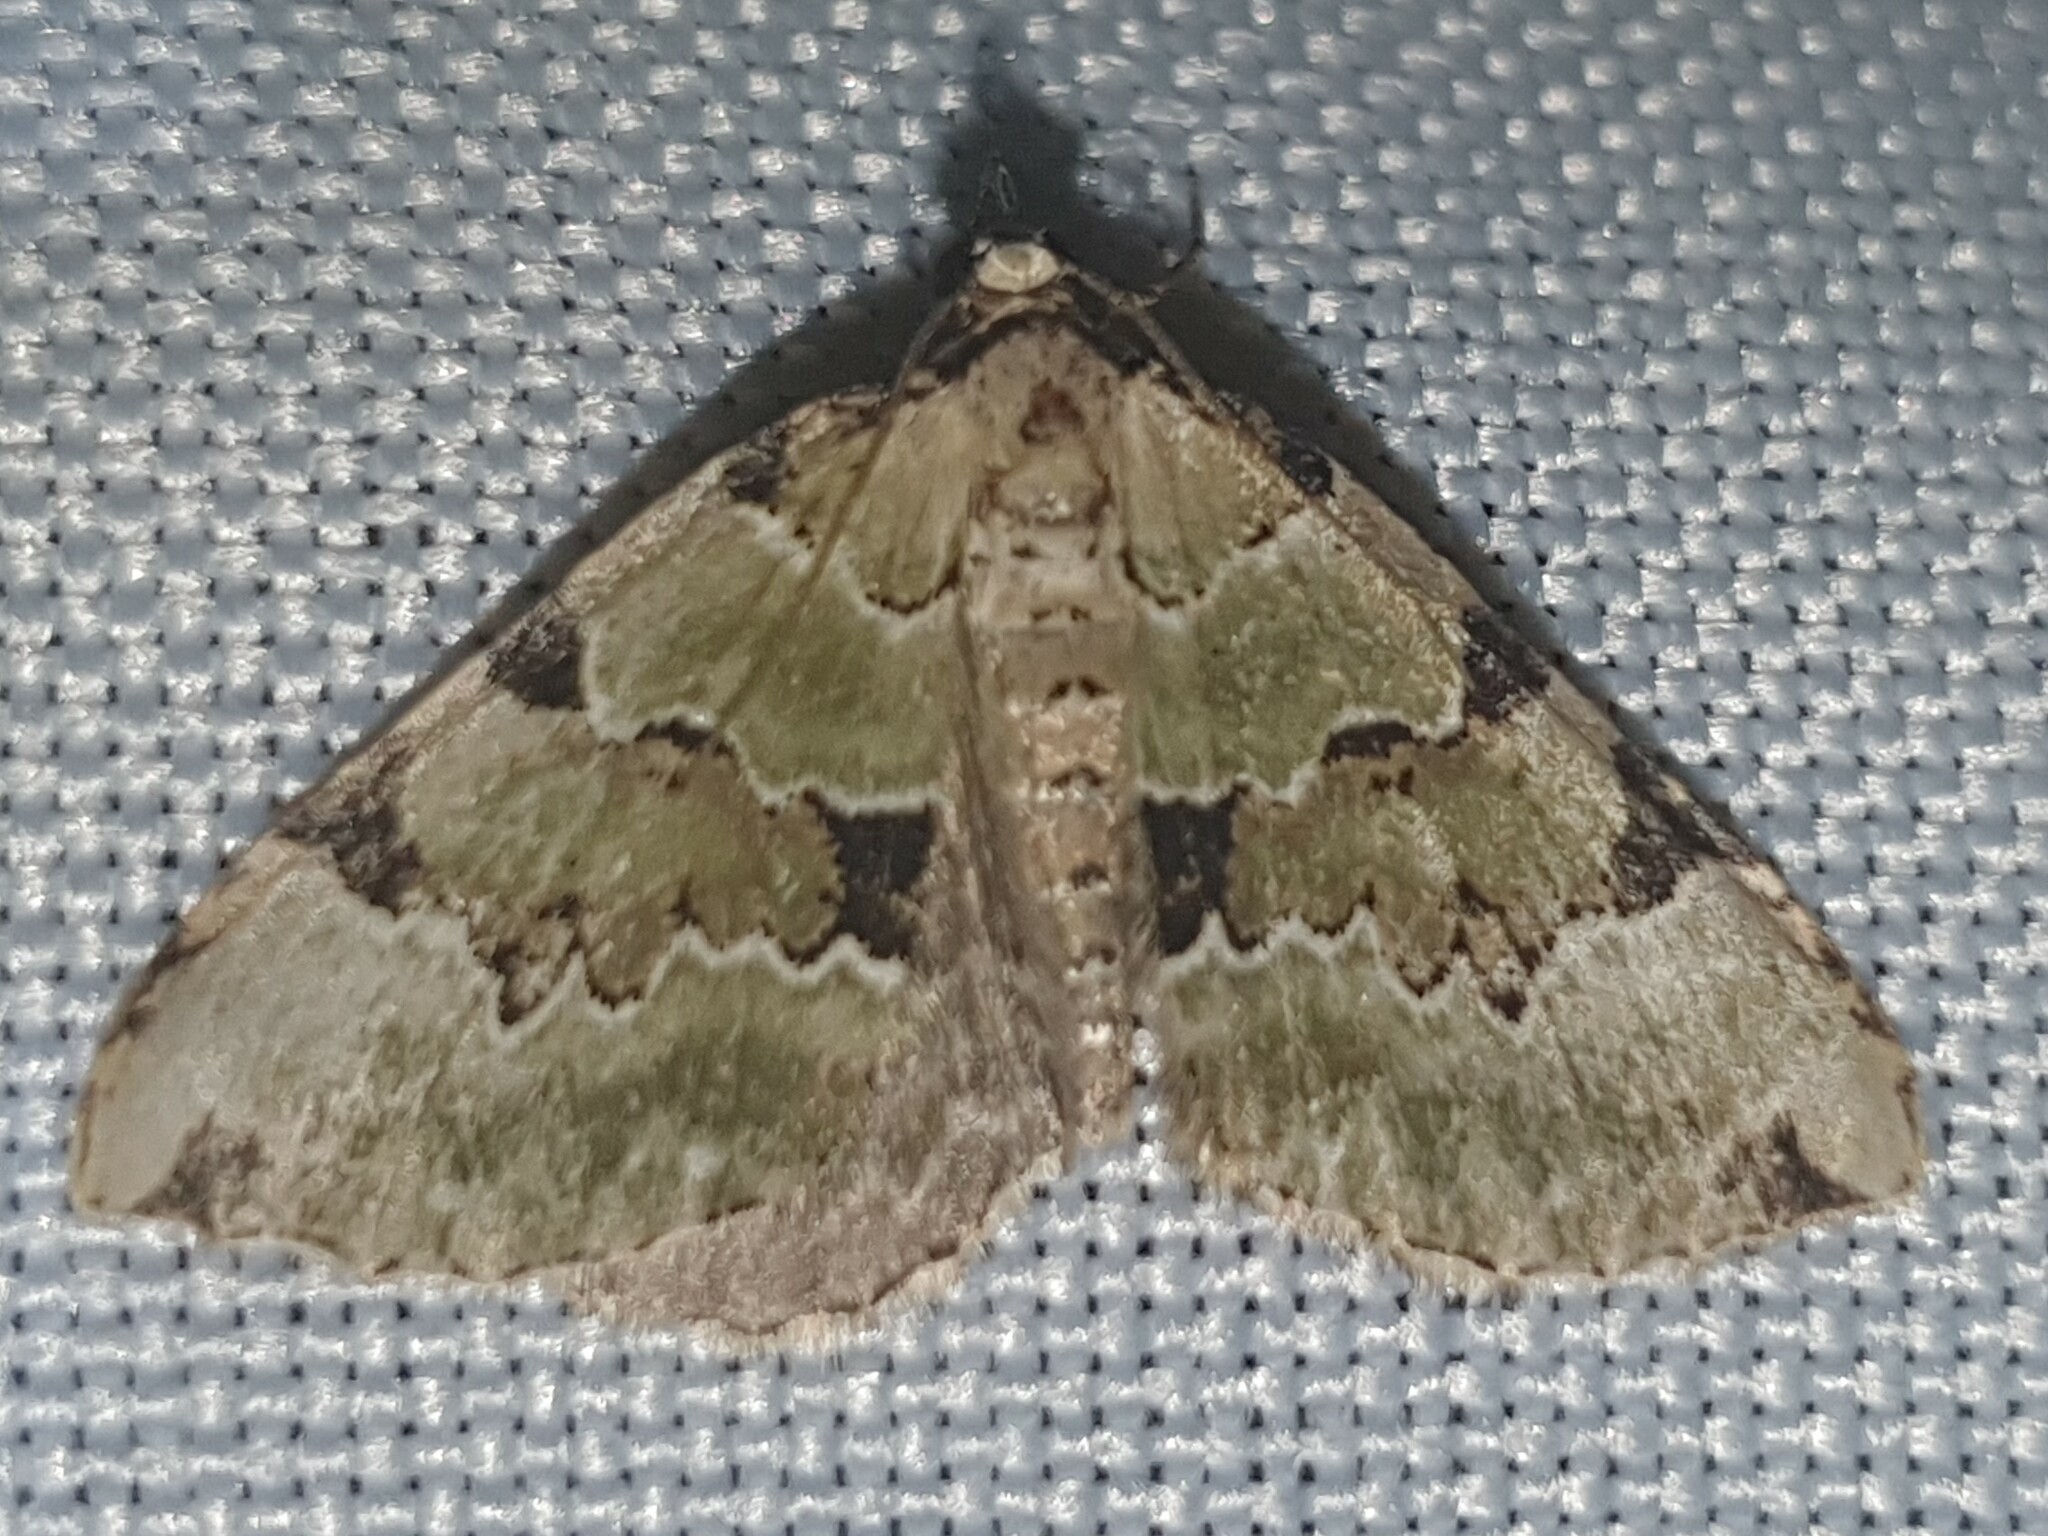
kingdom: Animalia
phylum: Arthropoda
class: Insecta
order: Lepidoptera
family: Geometridae
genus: Colostygia
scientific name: Colostygia pectinataria
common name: Green carpet
